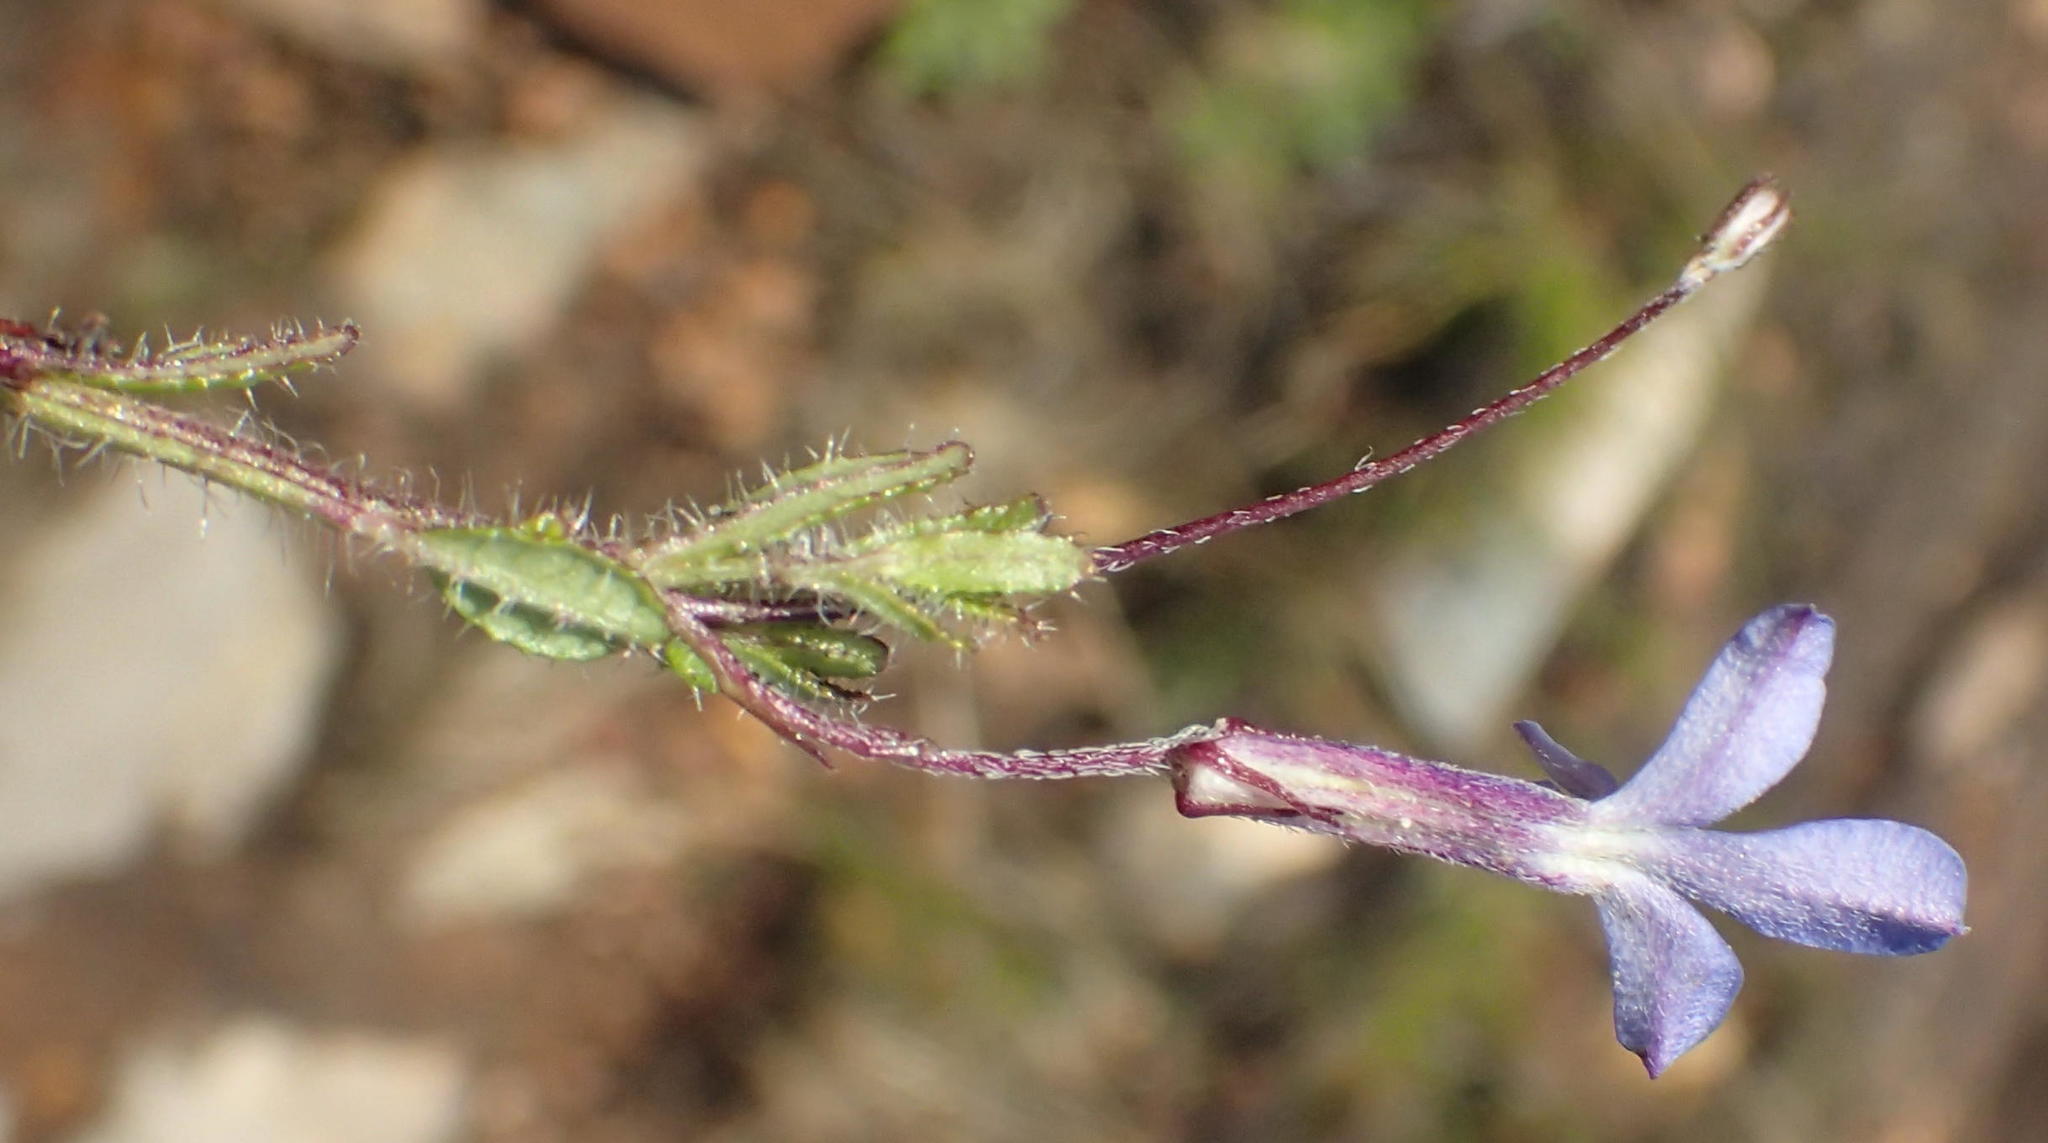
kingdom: Plantae
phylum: Tracheophyta
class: Magnoliopsida
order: Asterales
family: Campanulaceae
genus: Lobelia
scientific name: Lobelia neglecta
